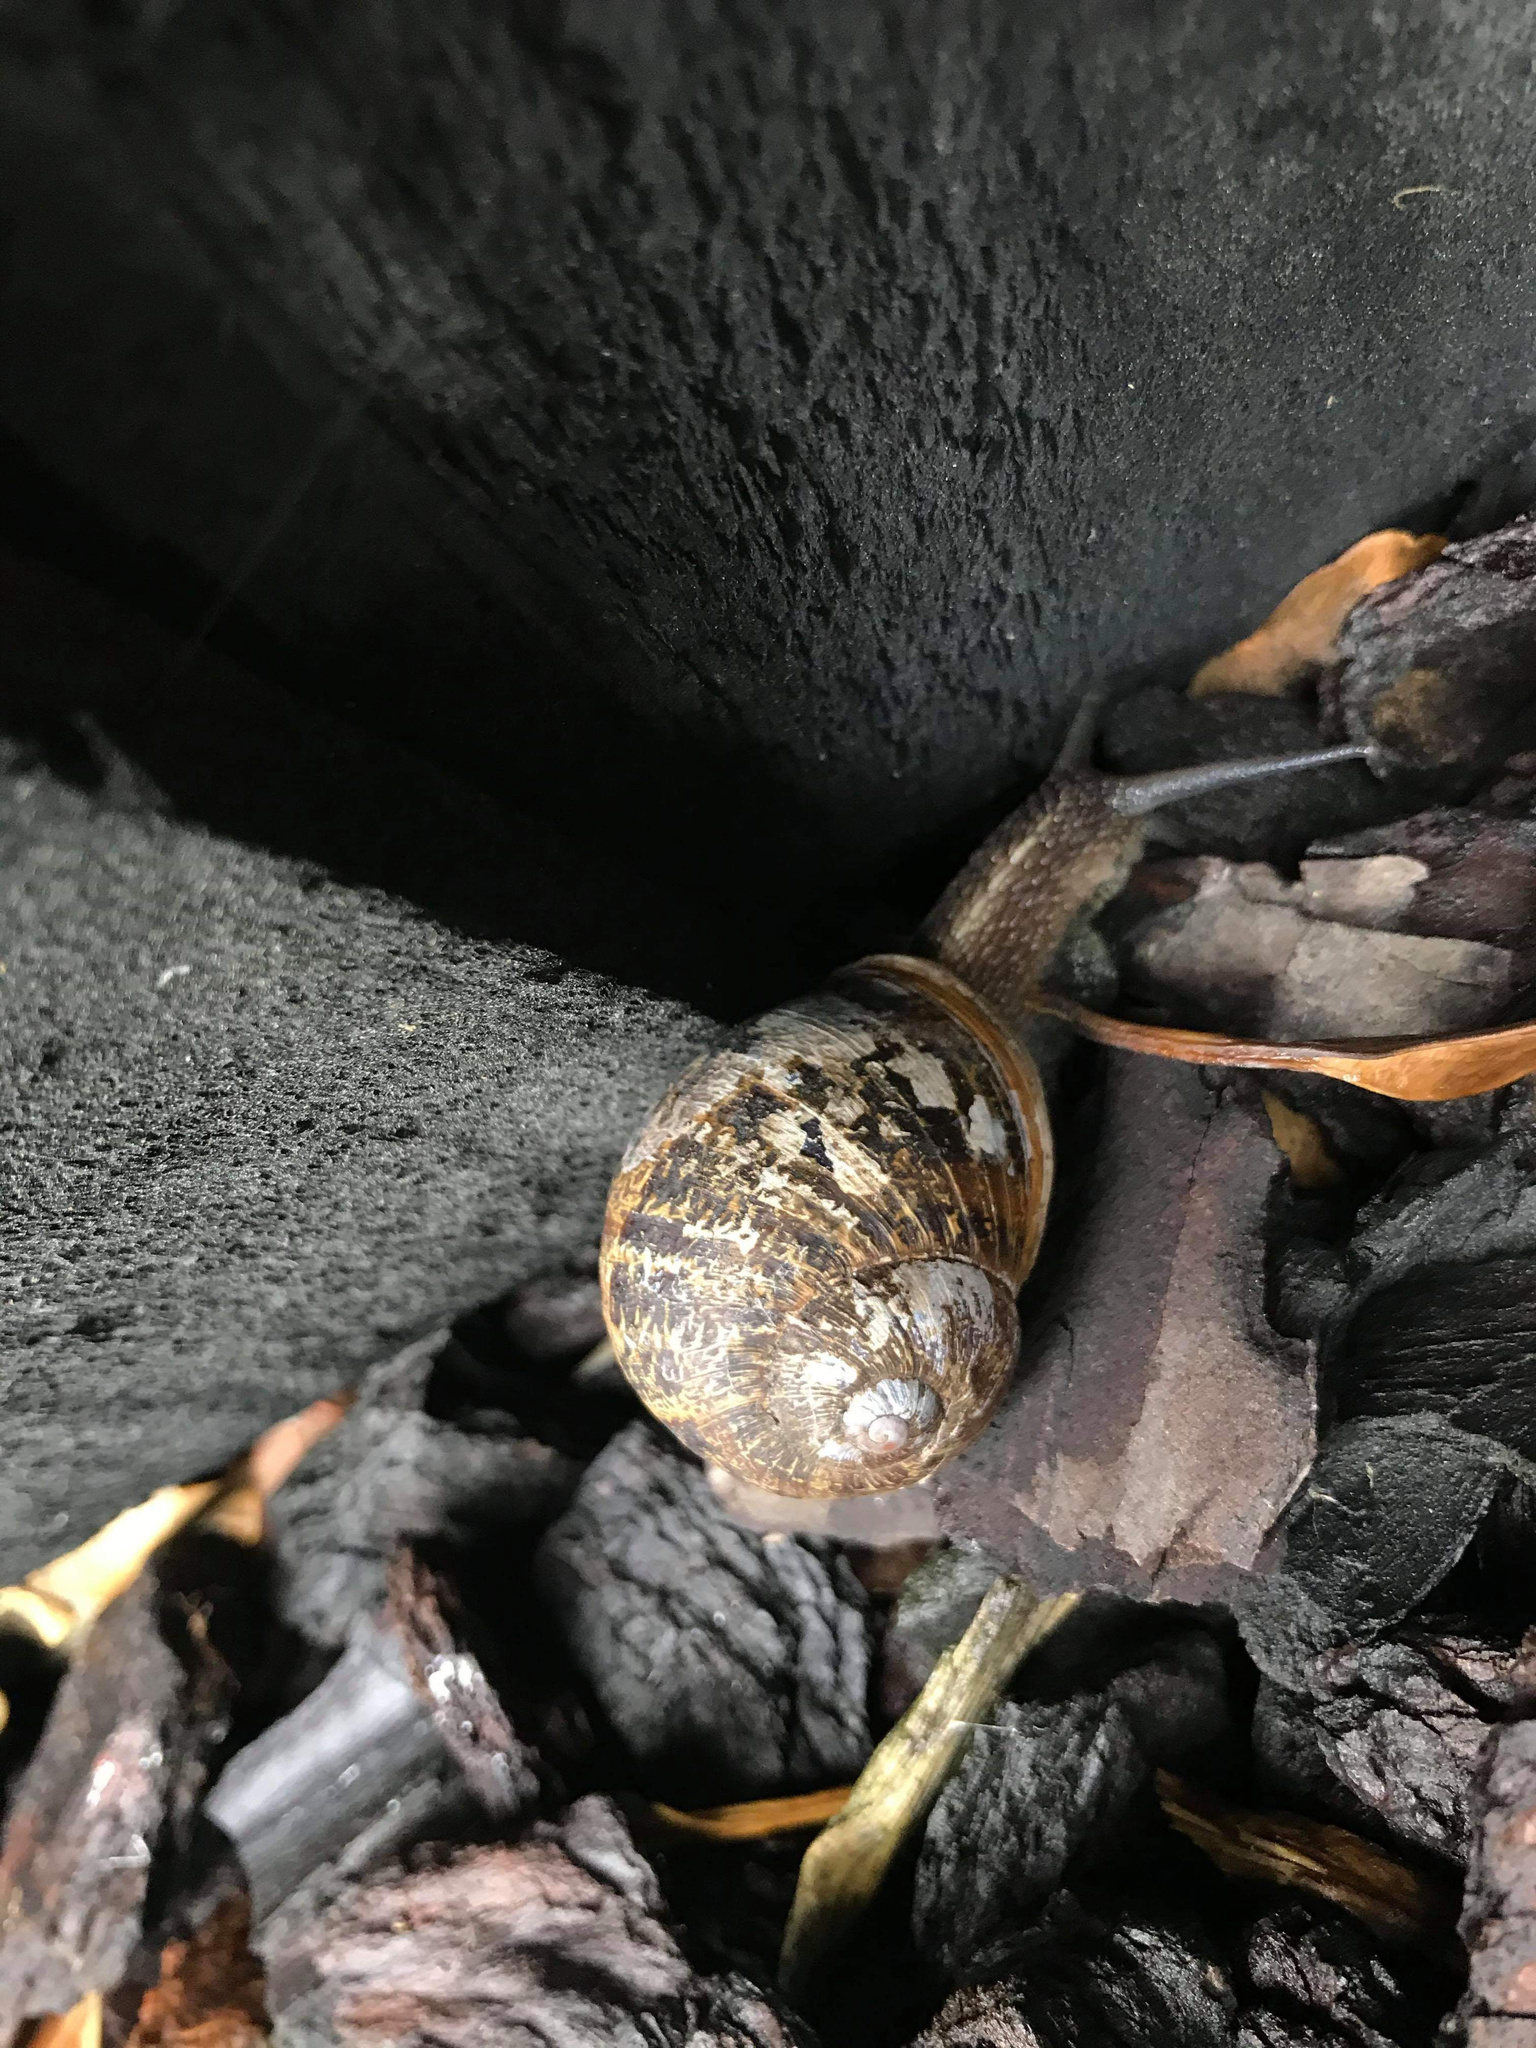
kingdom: Animalia
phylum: Mollusca
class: Gastropoda
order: Stylommatophora
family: Helicidae
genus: Cornu
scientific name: Cornu aspersum
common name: Brown garden snail
